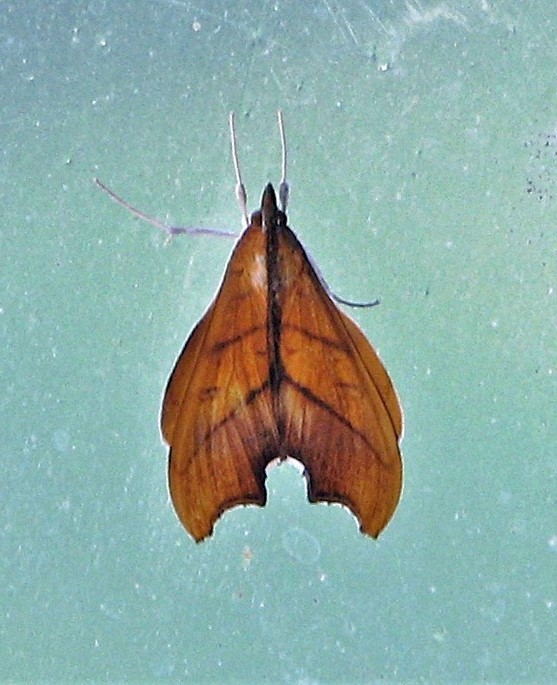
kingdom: Animalia
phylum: Arthropoda
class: Insecta
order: Lepidoptera
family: Crambidae
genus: Sparagmia
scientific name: Sparagmia gonoptera
